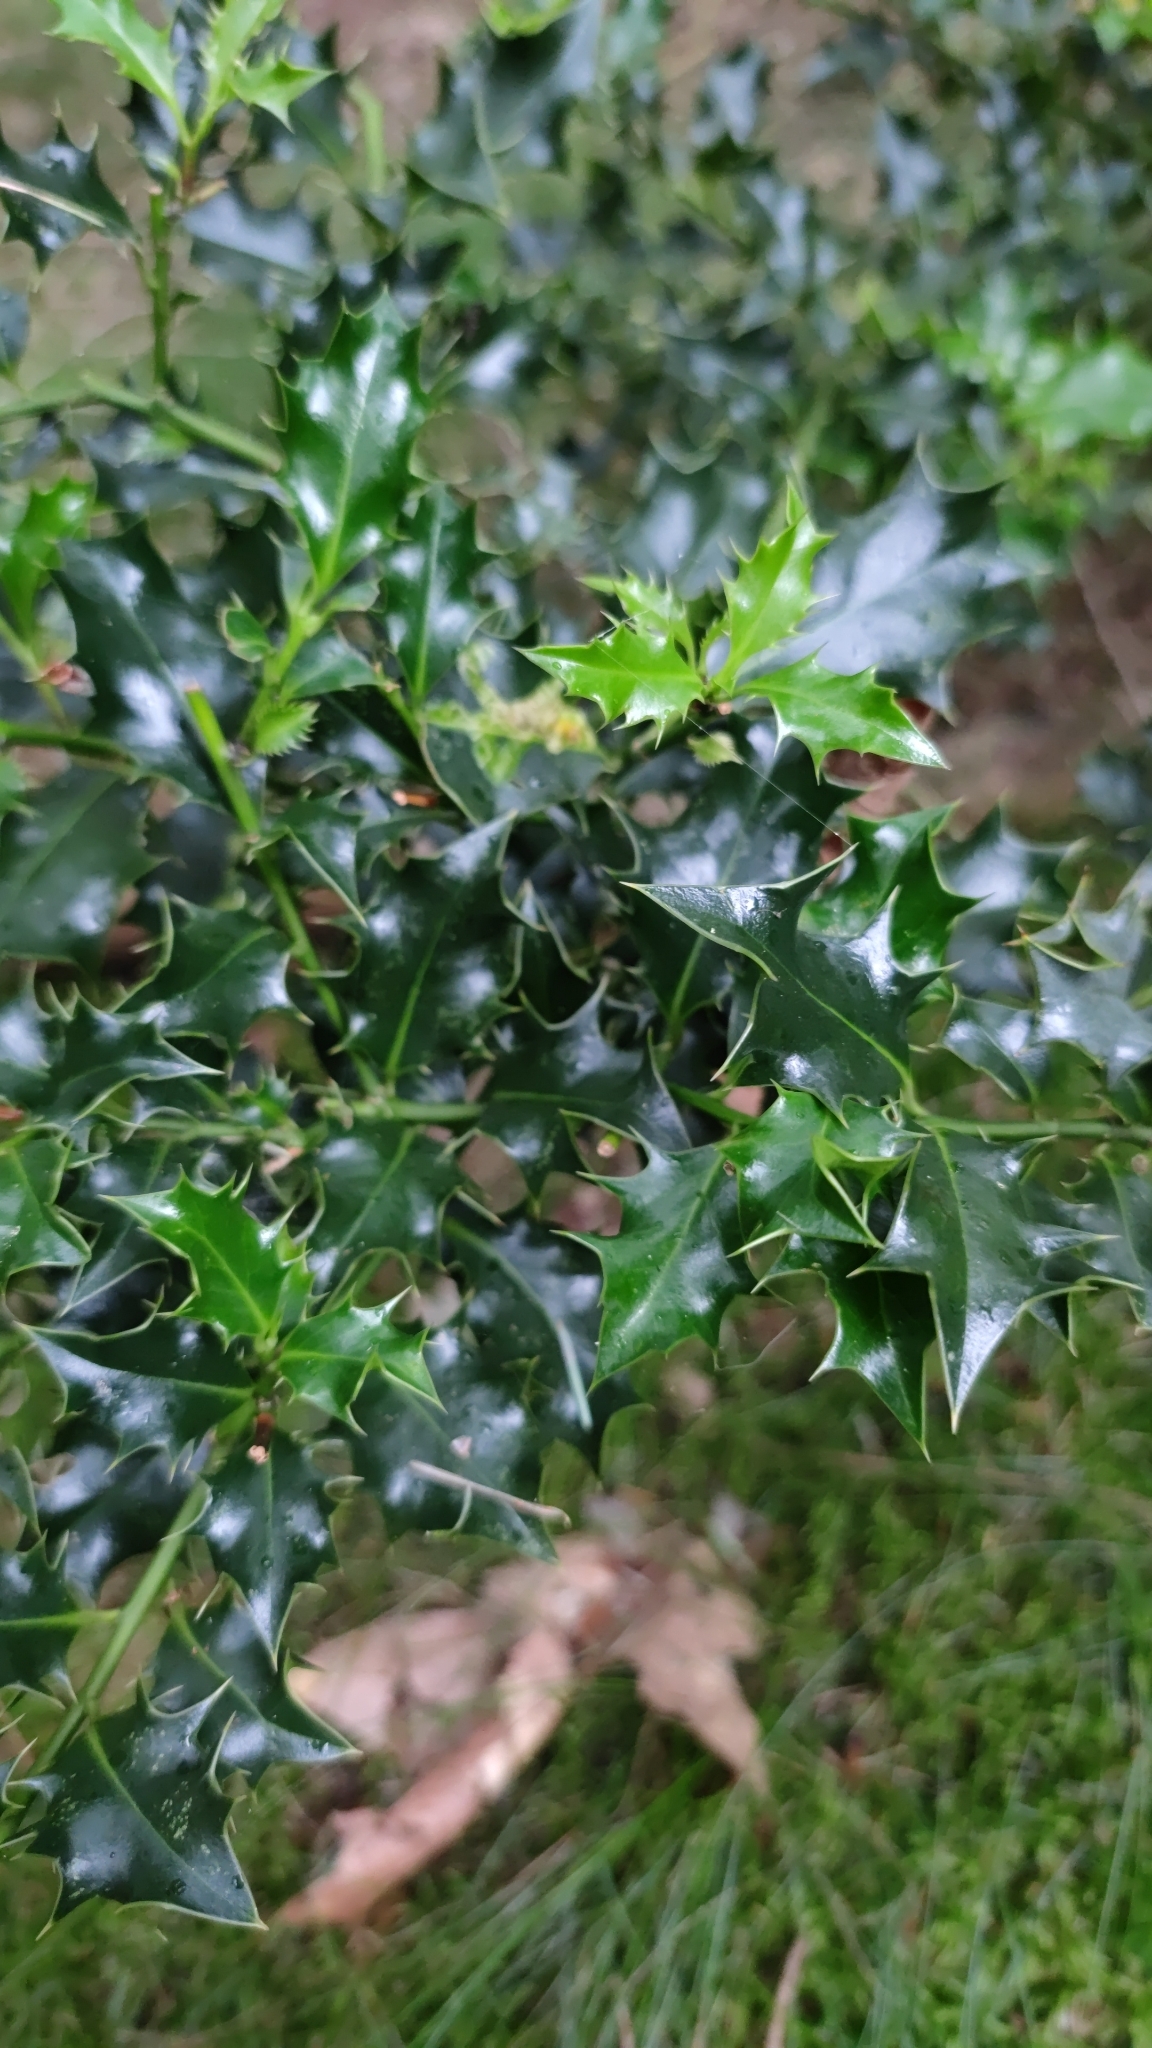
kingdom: Plantae
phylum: Tracheophyta
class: Magnoliopsida
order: Aquifoliales
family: Aquifoliaceae
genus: Ilex
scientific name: Ilex aquifolium
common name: English holly
